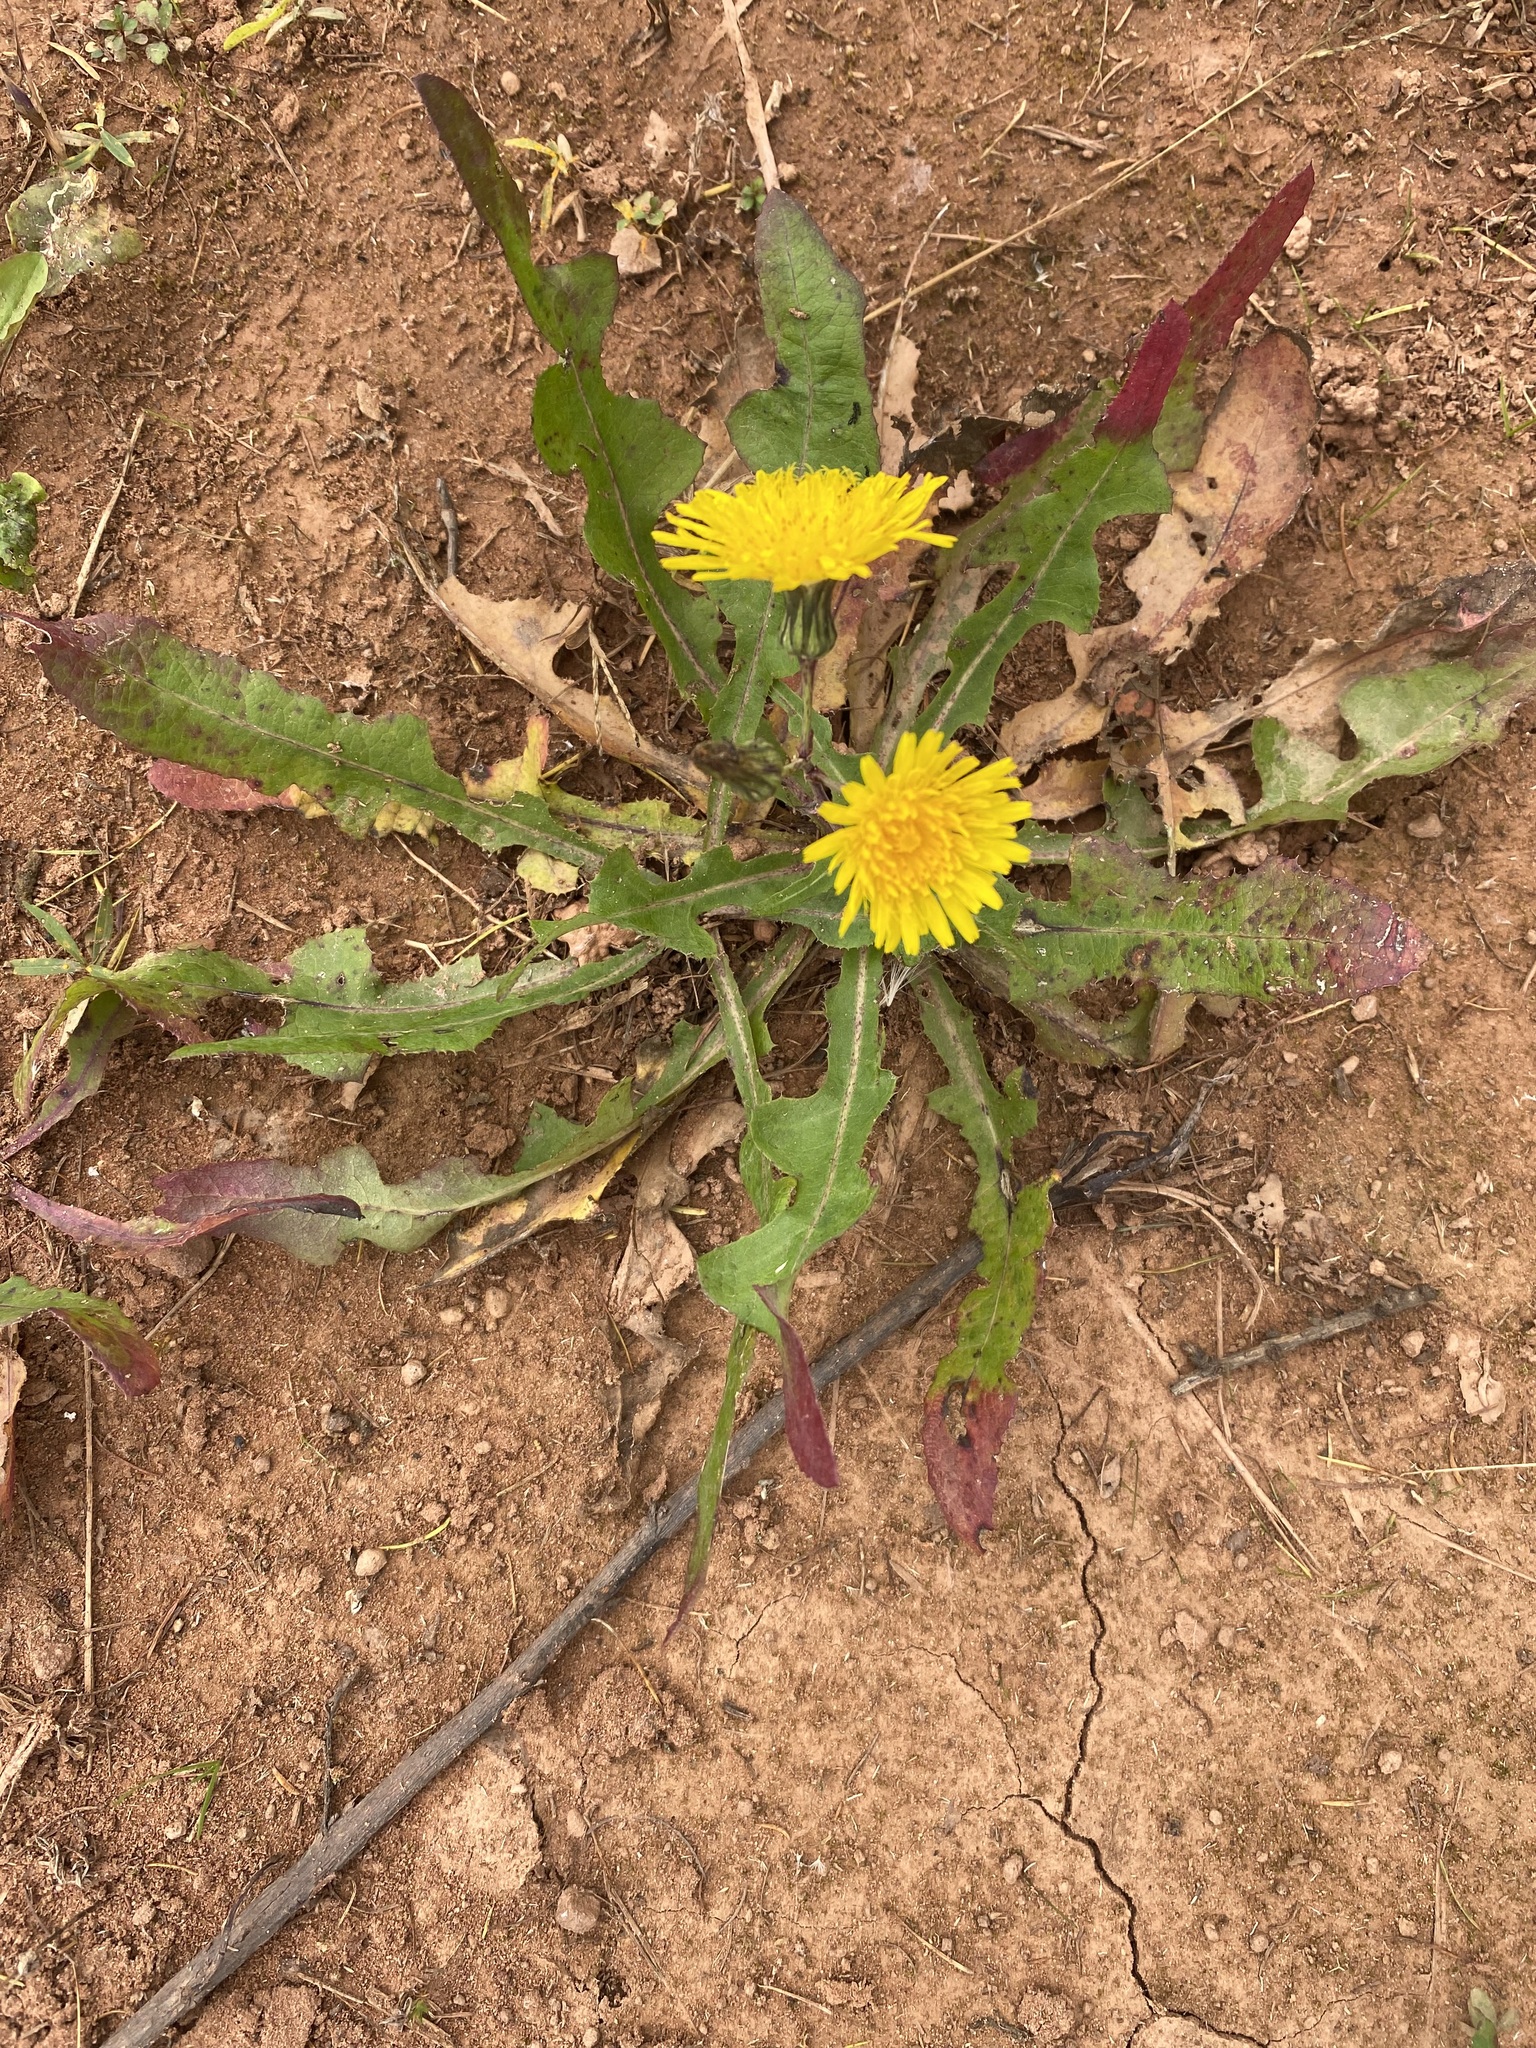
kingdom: Plantae
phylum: Tracheophyta
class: Magnoliopsida
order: Asterales
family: Asteraceae
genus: Scorzoneroides
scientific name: Scorzoneroides autumnalis
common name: Autumn hawkbit
